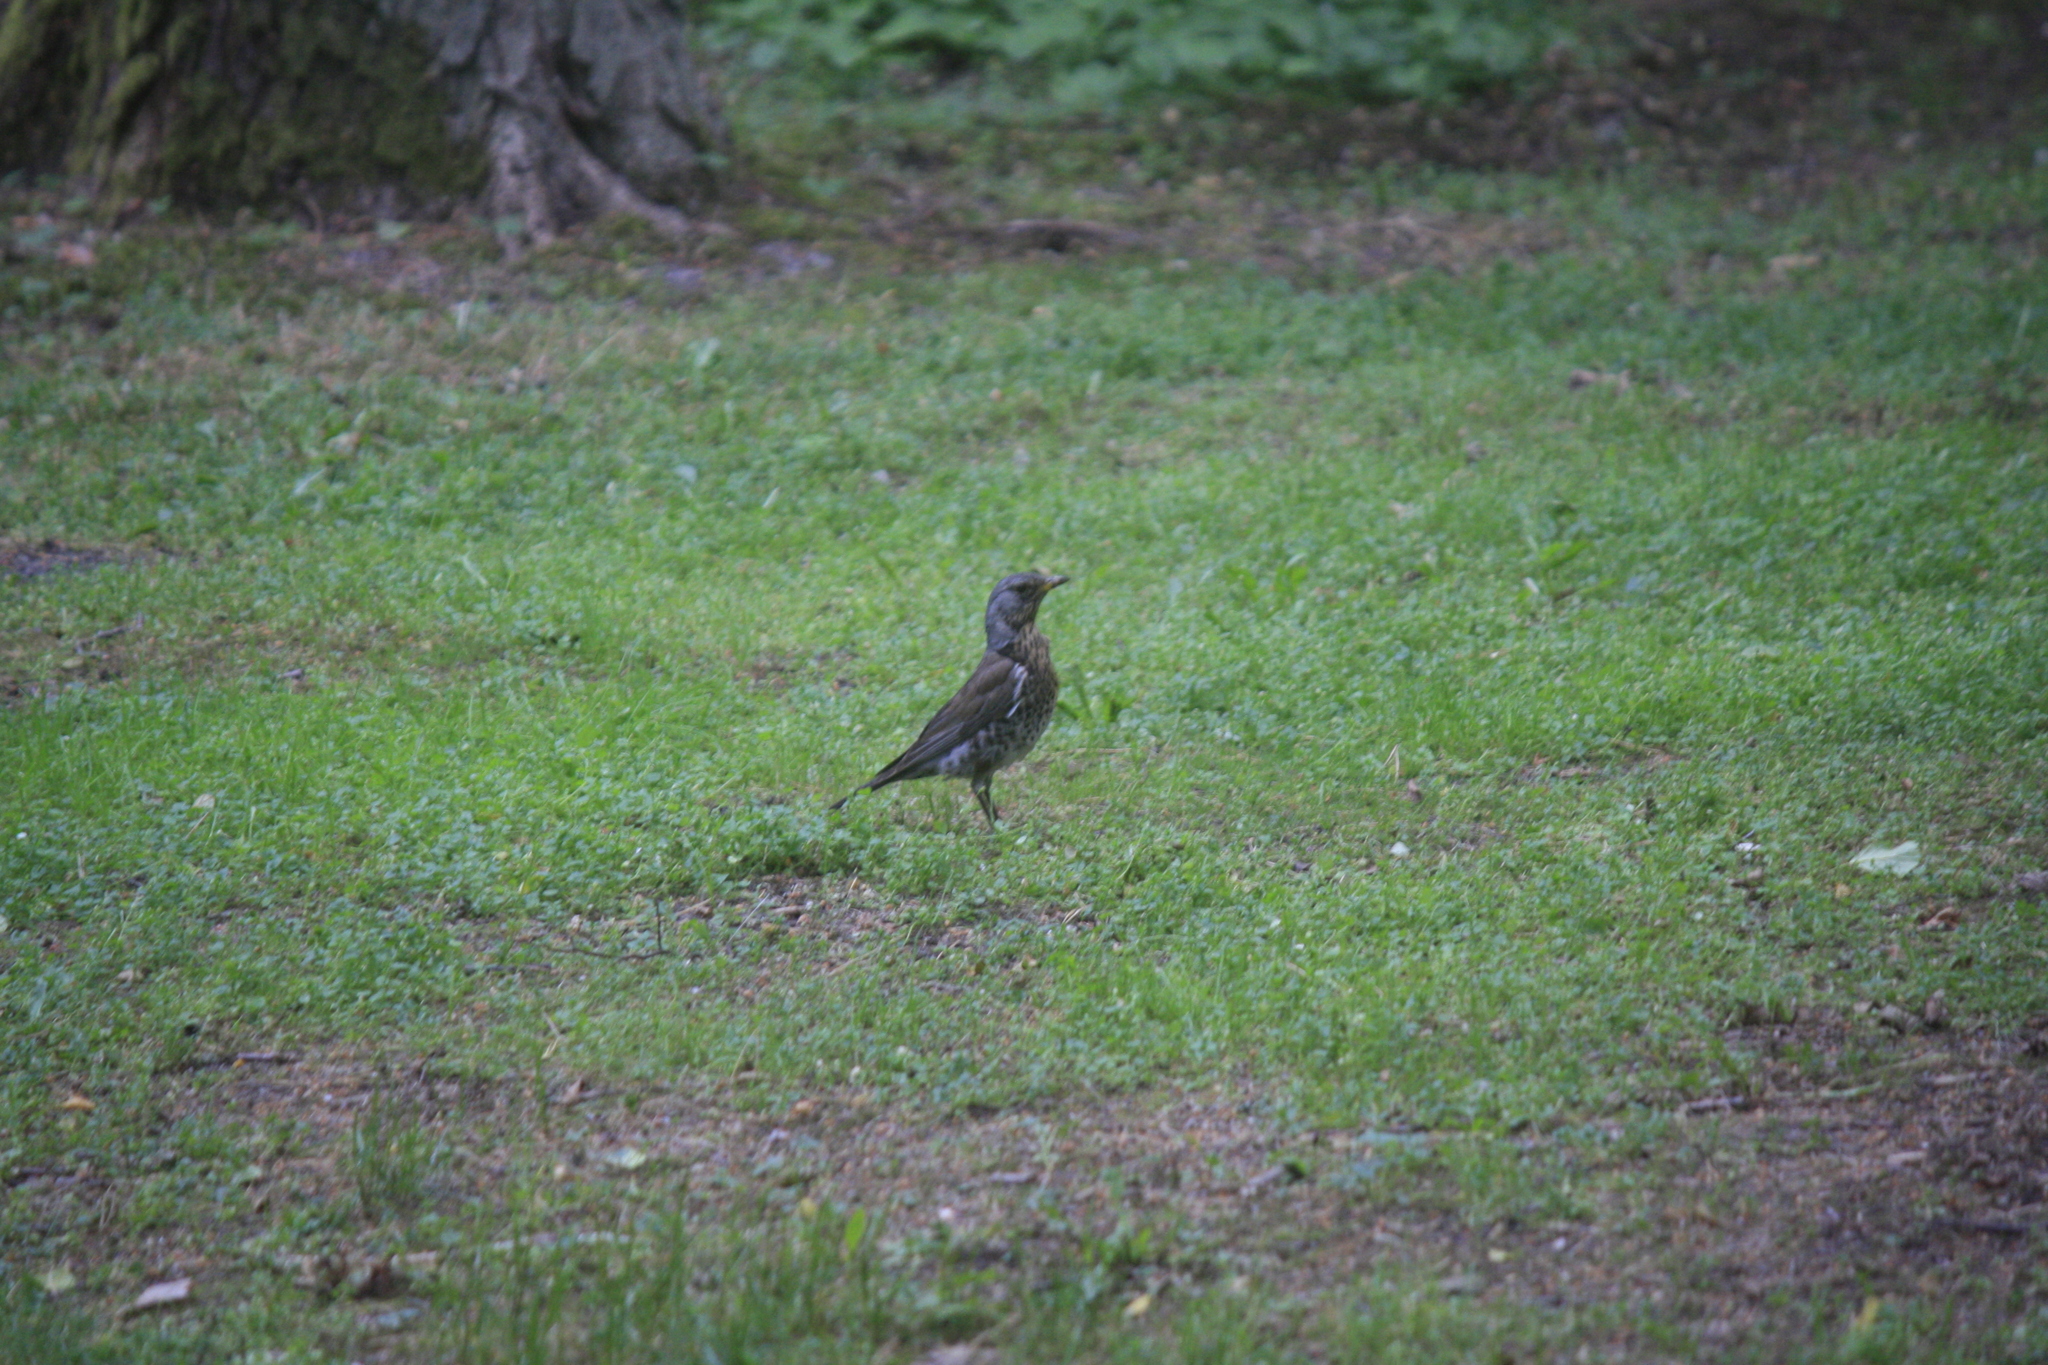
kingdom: Animalia
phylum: Chordata
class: Aves
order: Passeriformes
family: Turdidae
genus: Turdus
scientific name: Turdus pilaris
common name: Fieldfare
